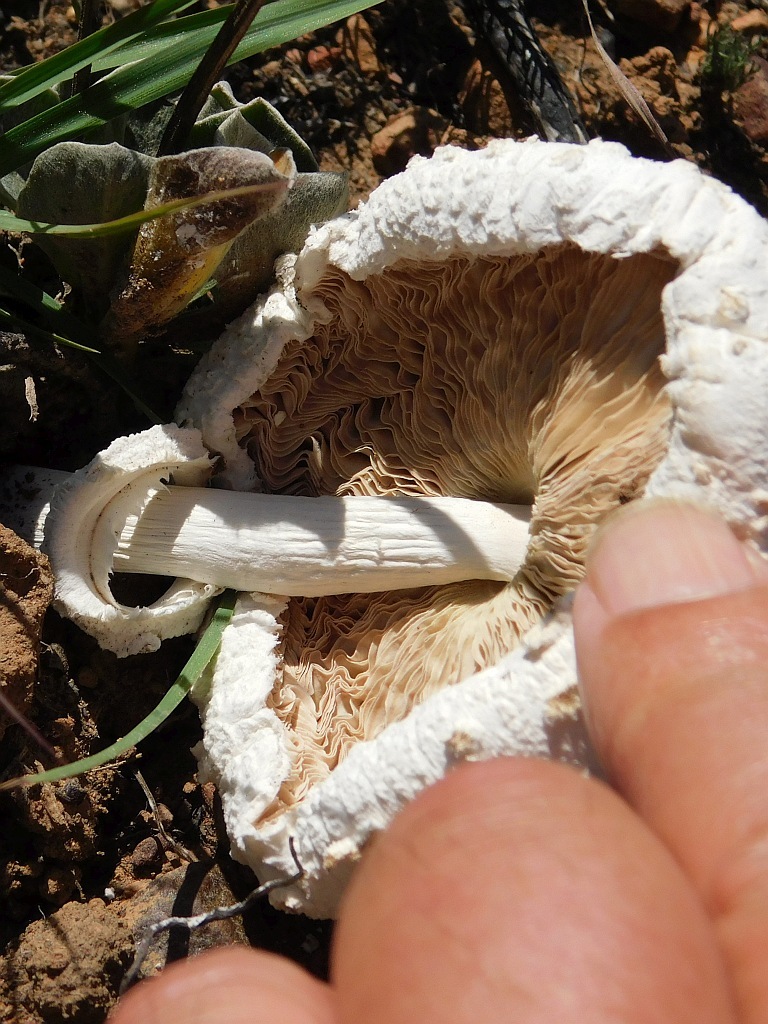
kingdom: Fungi
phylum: Basidiomycota
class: Agaricomycetes
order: Agaricales
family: Agaricaceae
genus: Macrolepiota
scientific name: Macrolepiota zeyheri
